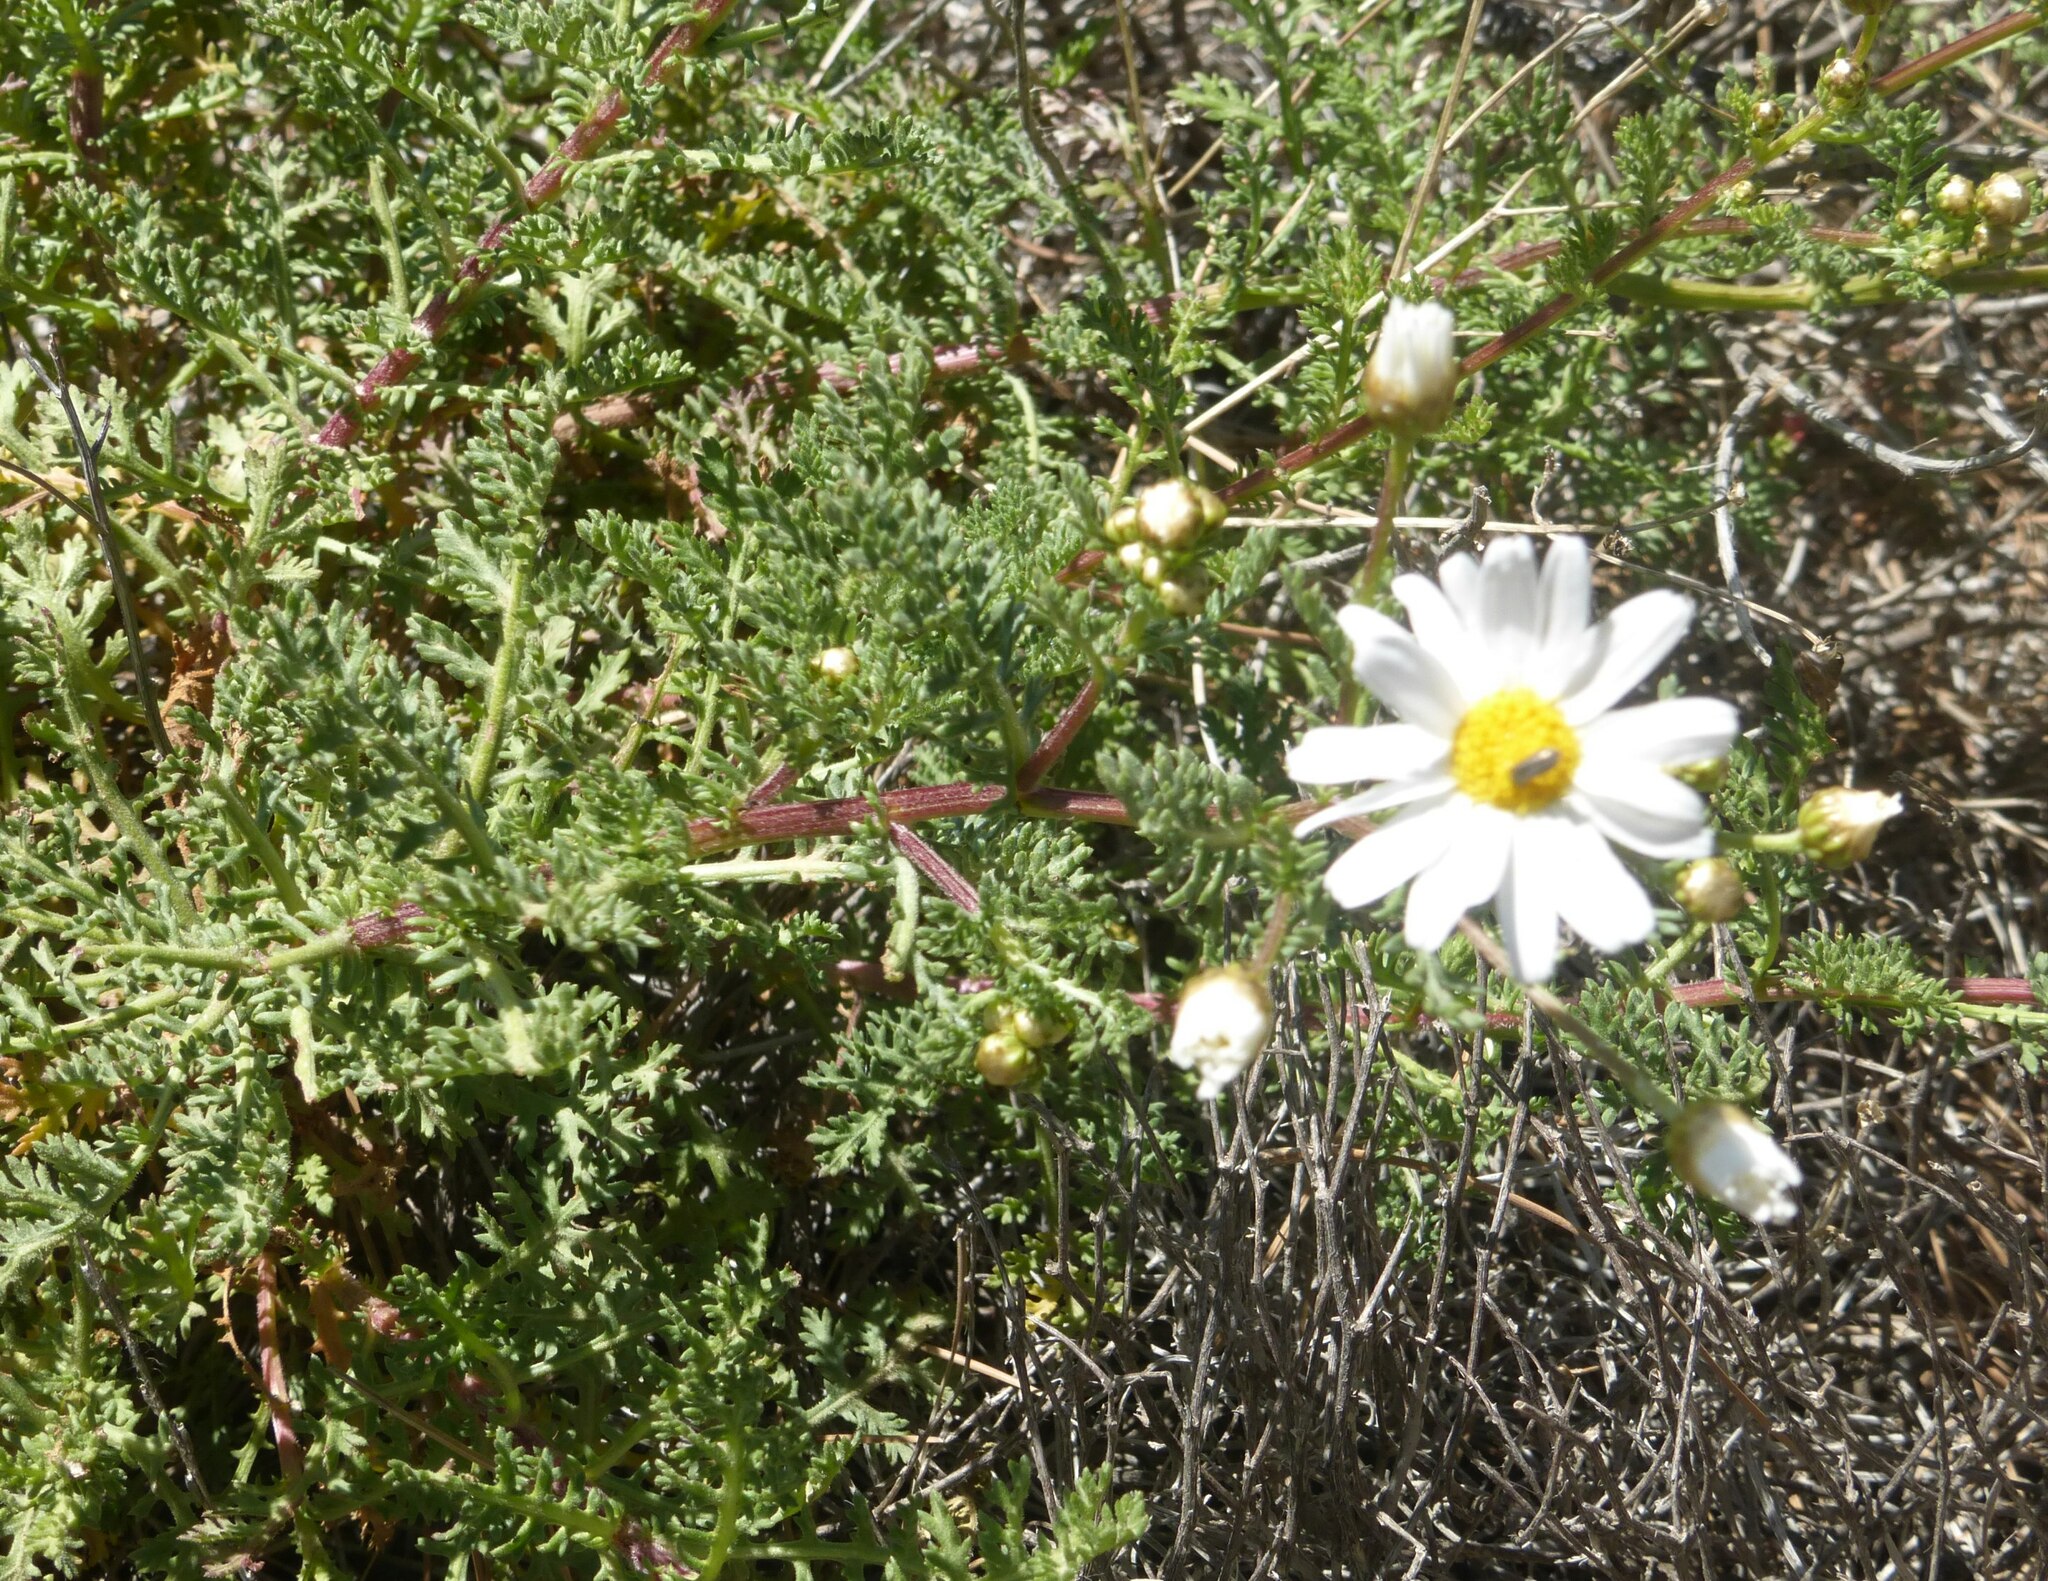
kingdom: Plantae
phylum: Tracheophyta
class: Magnoliopsida
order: Asterales
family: Asteraceae
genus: Argyranthemum
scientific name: Argyranthemum adauctum
